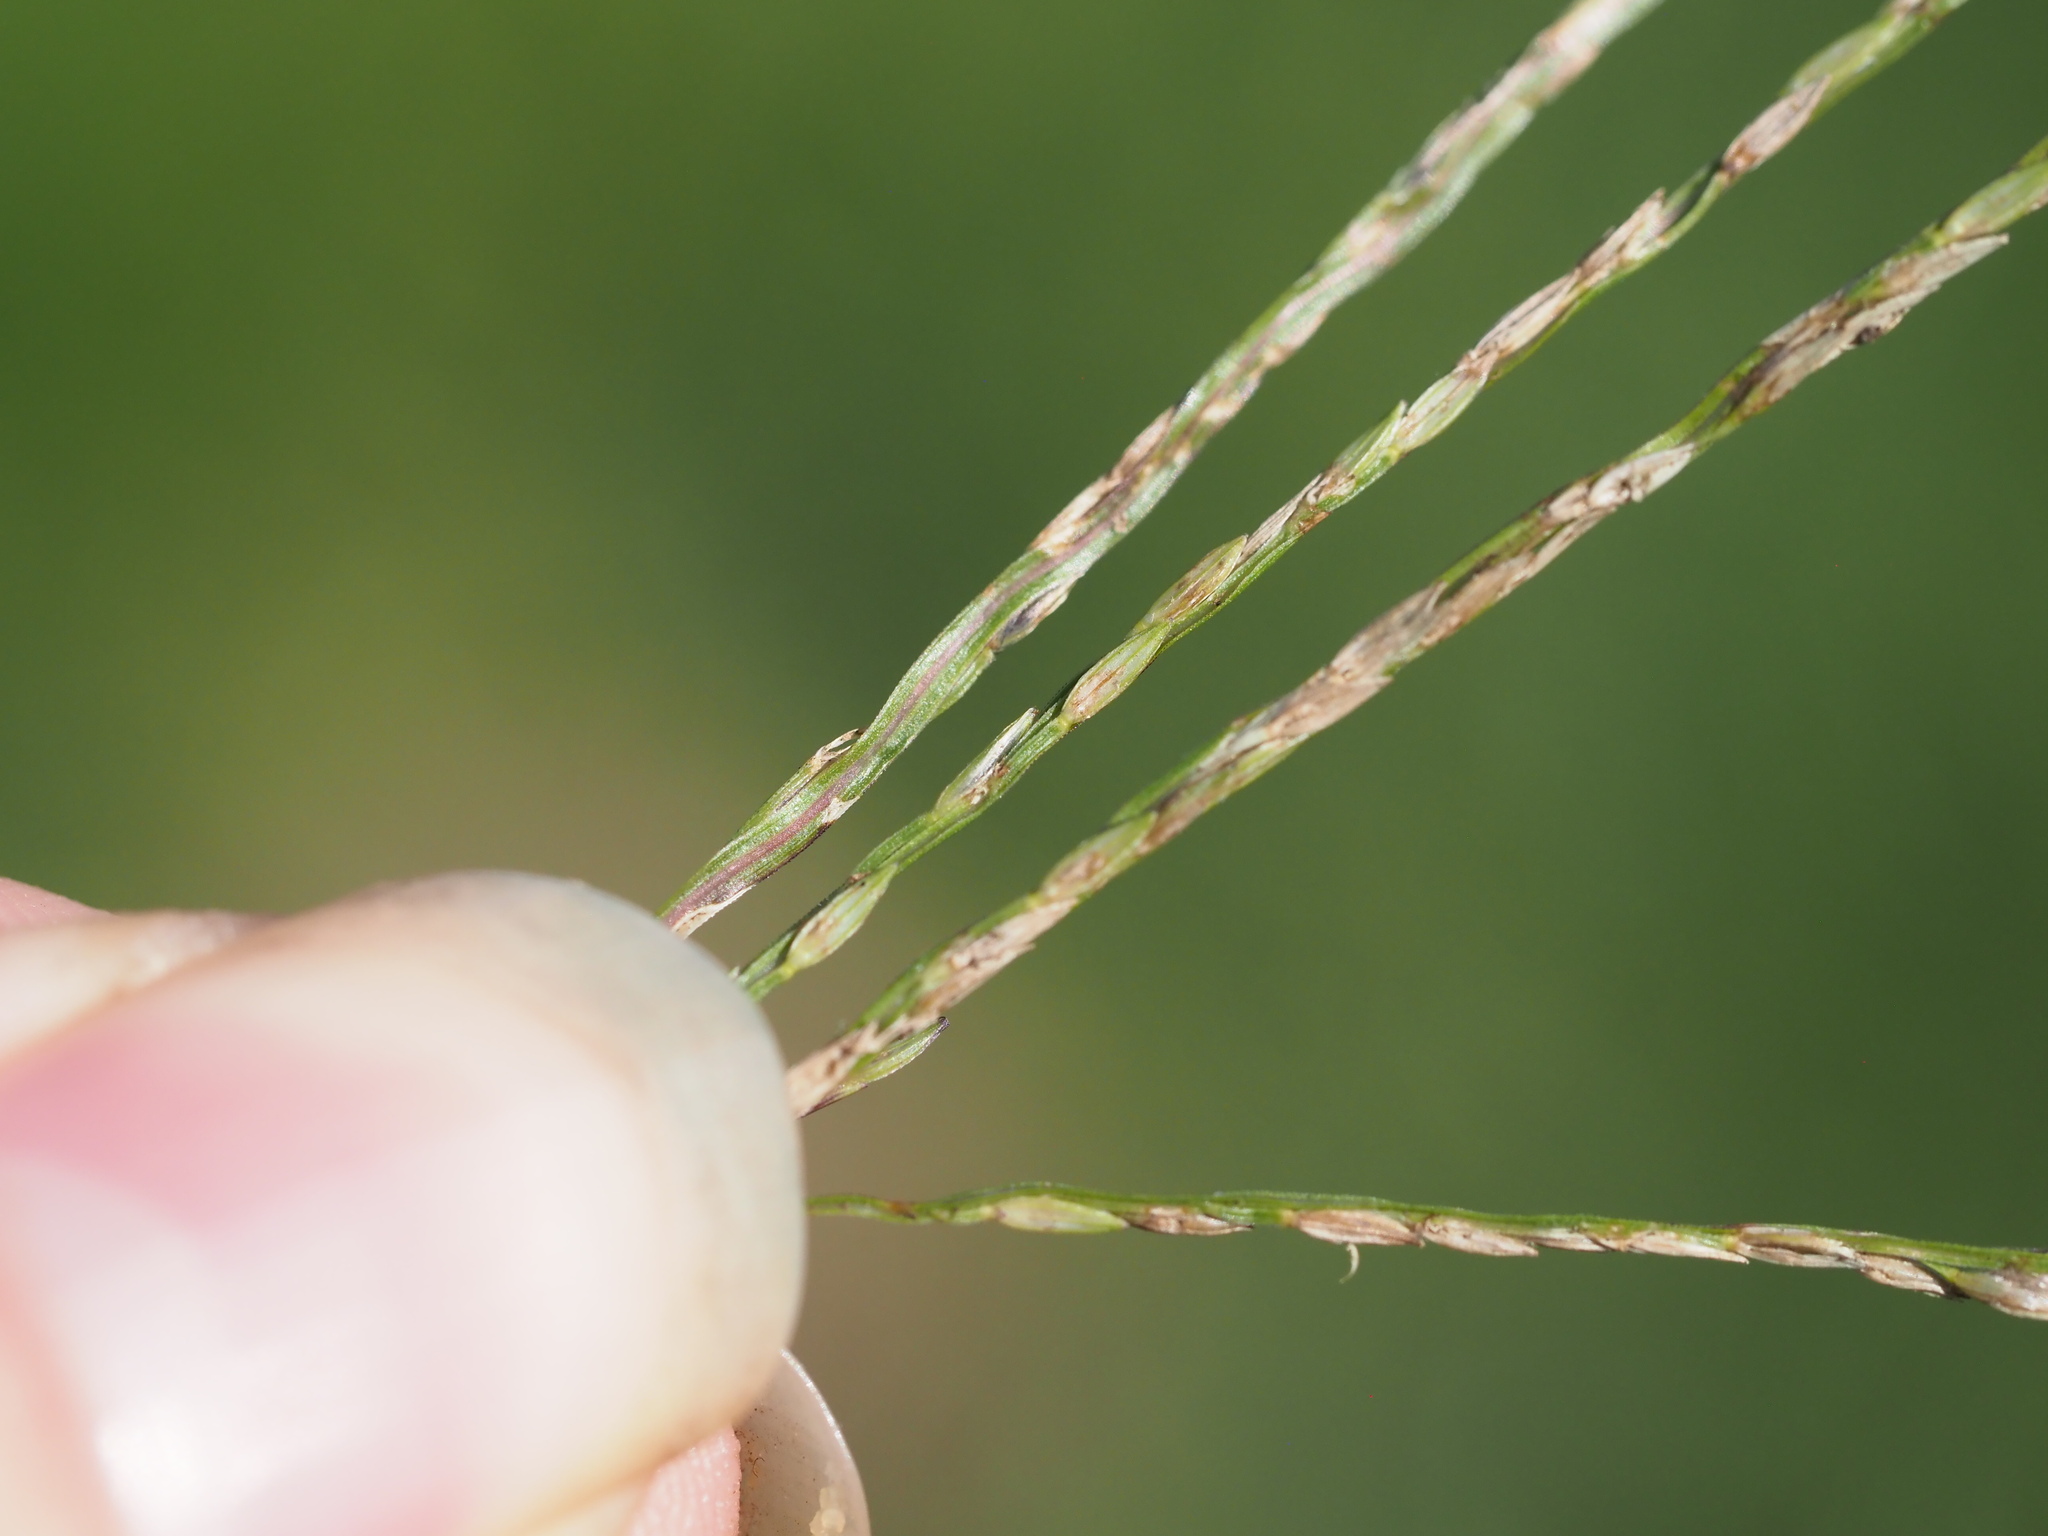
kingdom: Plantae
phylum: Tracheophyta
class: Liliopsida
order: Poales
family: Poaceae
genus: Digitaria
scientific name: Digitaria ciliaris
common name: Tropical finger-grass
